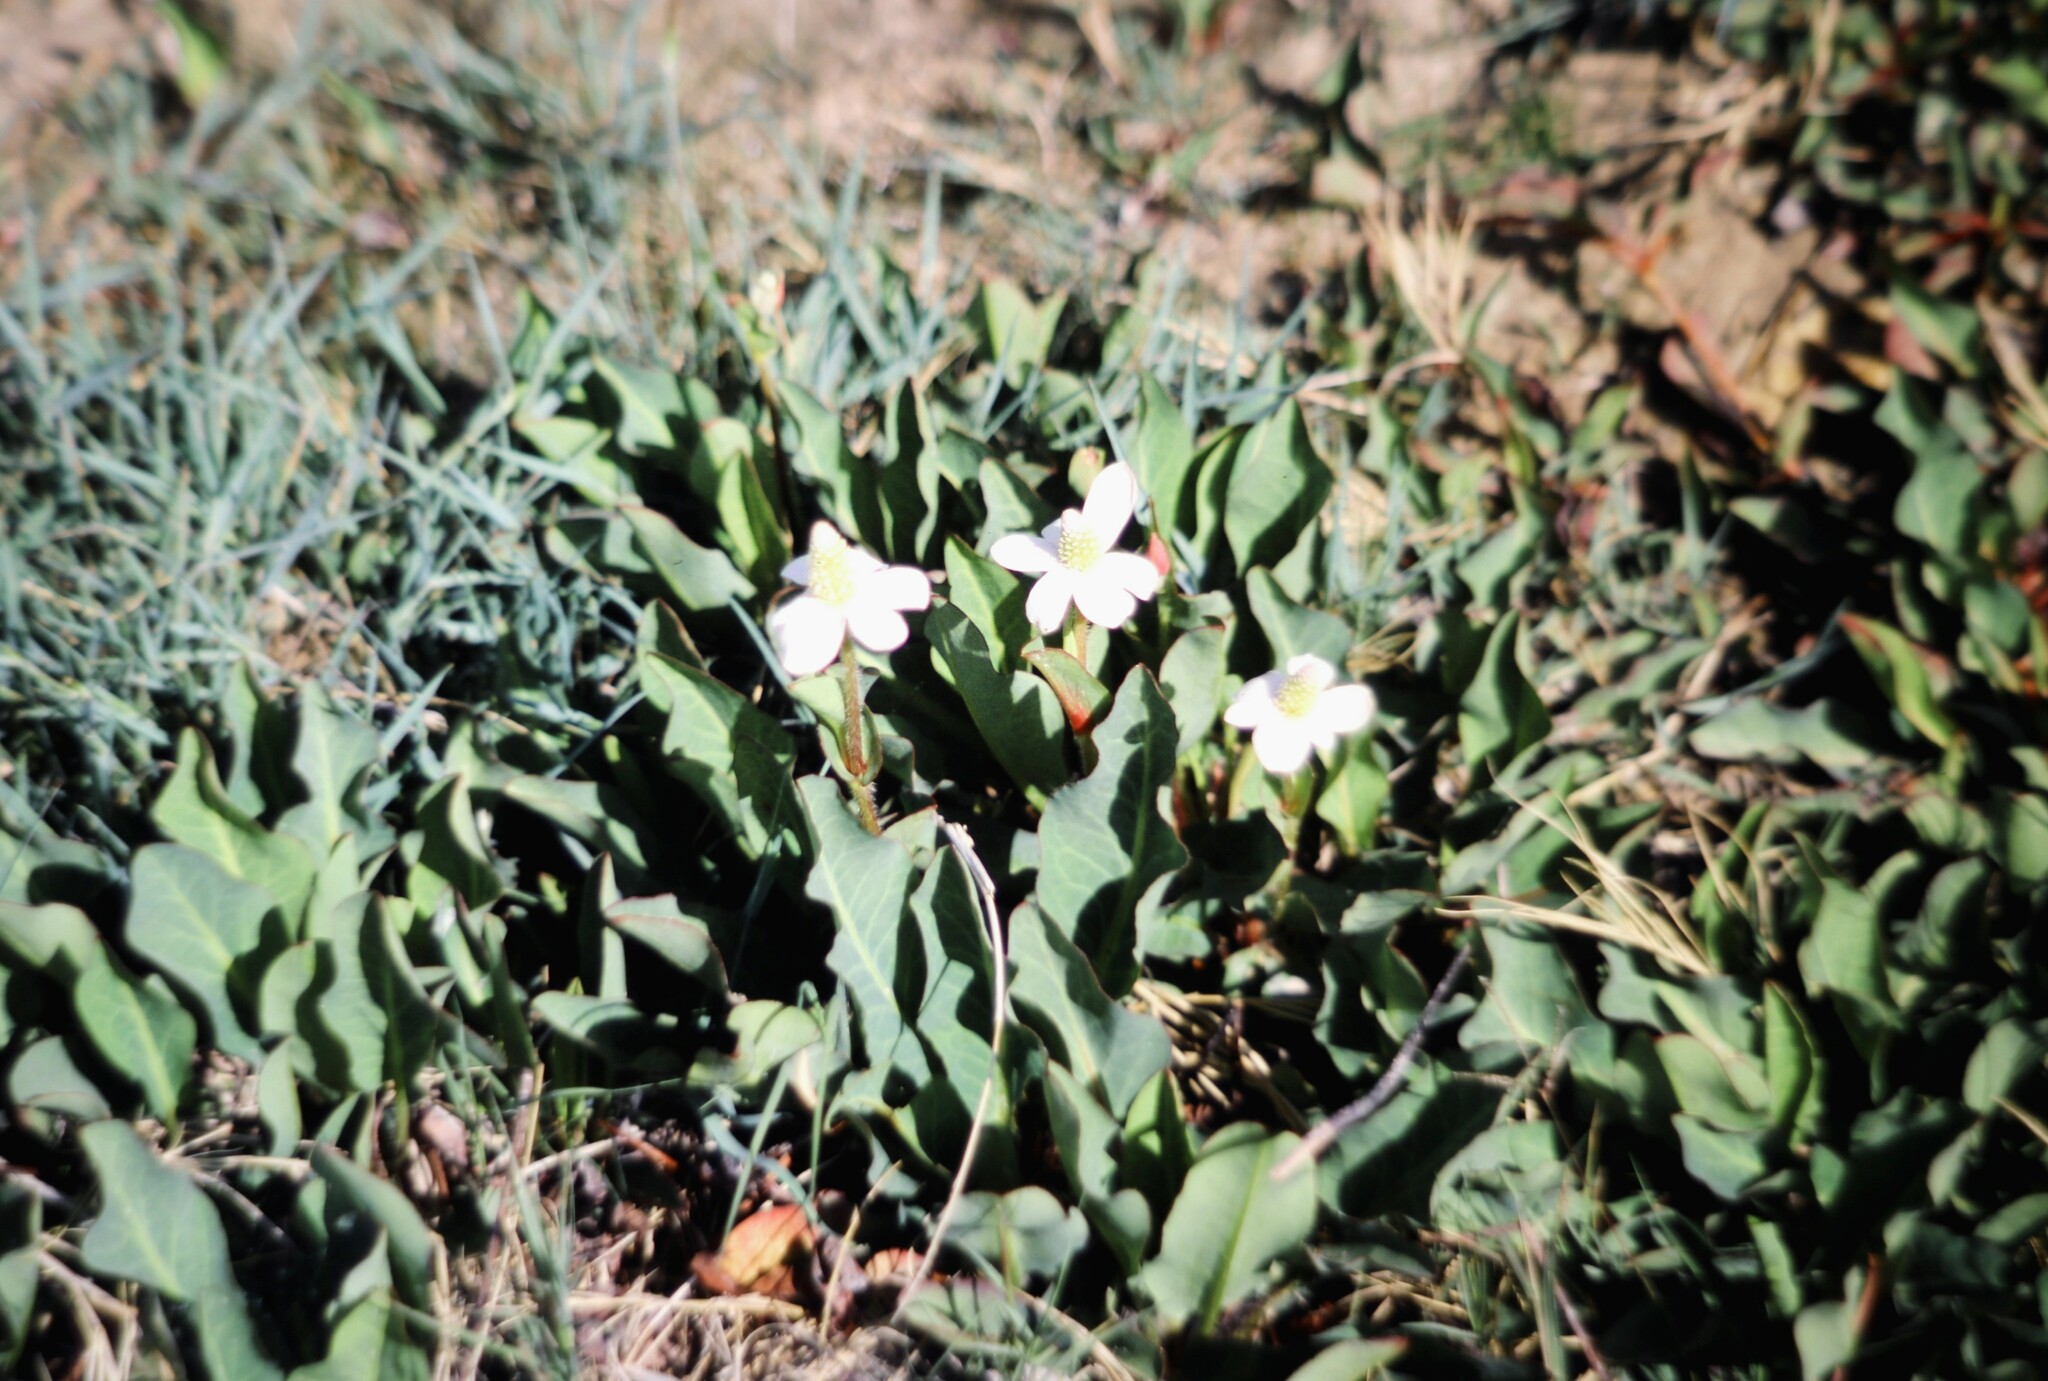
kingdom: Plantae
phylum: Tracheophyta
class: Magnoliopsida
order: Piperales
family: Saururaceae
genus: Anemopsis
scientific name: Anemopsis californica
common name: Apache-beads
